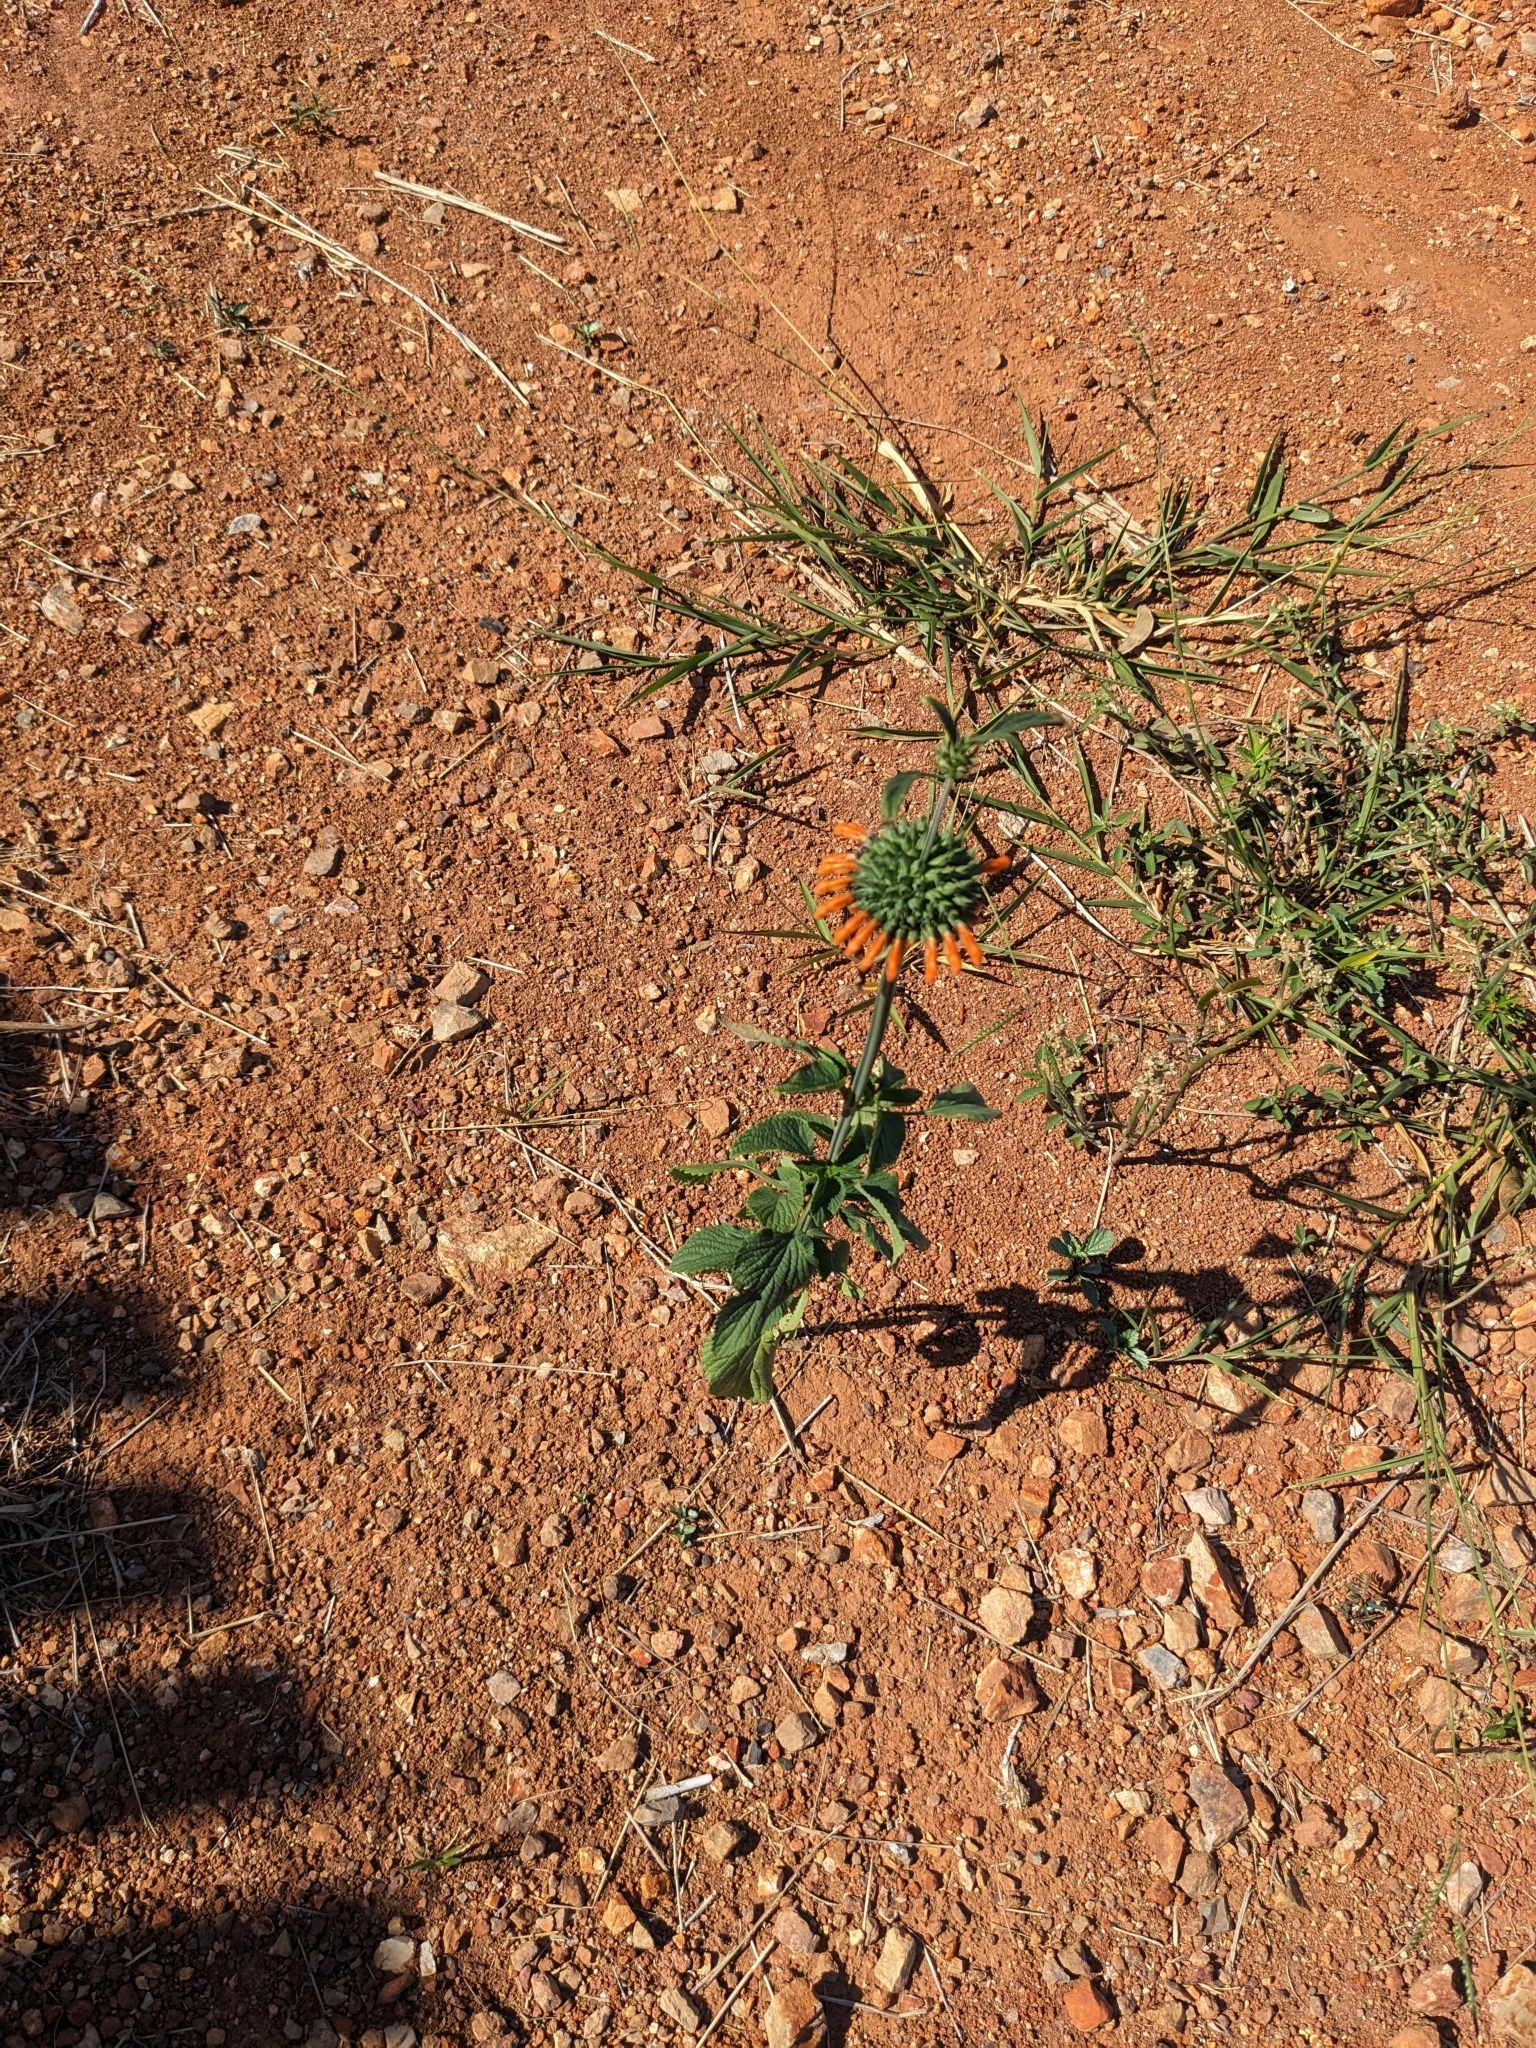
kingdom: Plantae
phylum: Tracheophyta
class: Magnoliopsida
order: Lamiales
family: Lamiaceae
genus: Leonotis
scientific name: Leonotis nepetifolia
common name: Christmas candlestick
